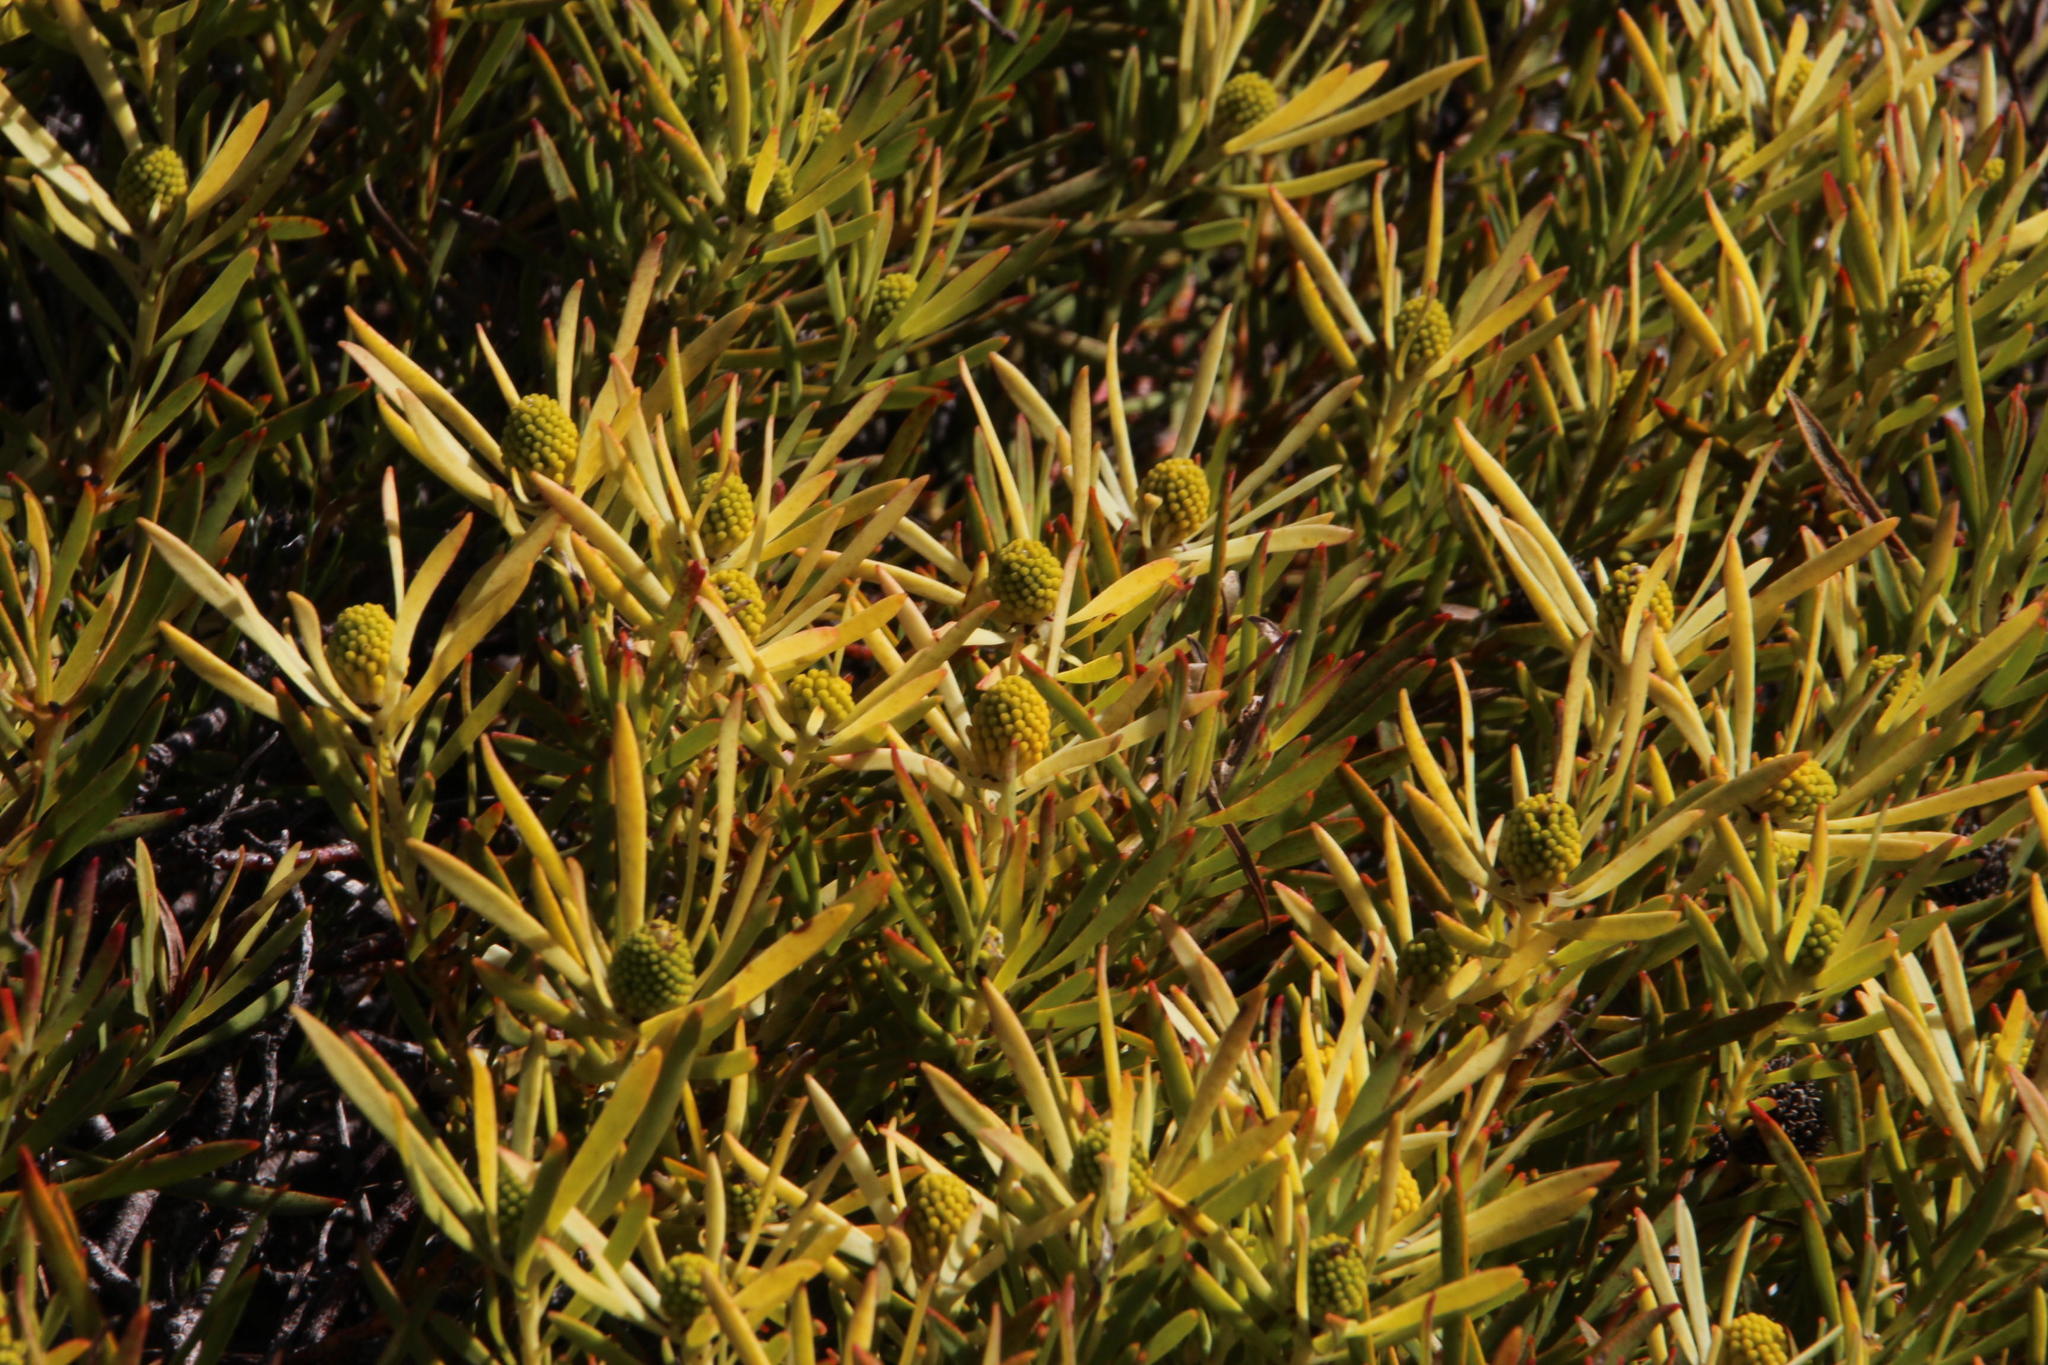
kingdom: Plantae
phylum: Tracheophyta
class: Magnoliopsida
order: Proteales
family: Proteaceae
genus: Leucadendron
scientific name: Leucadendron salignum
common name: Common sunshine conebush
